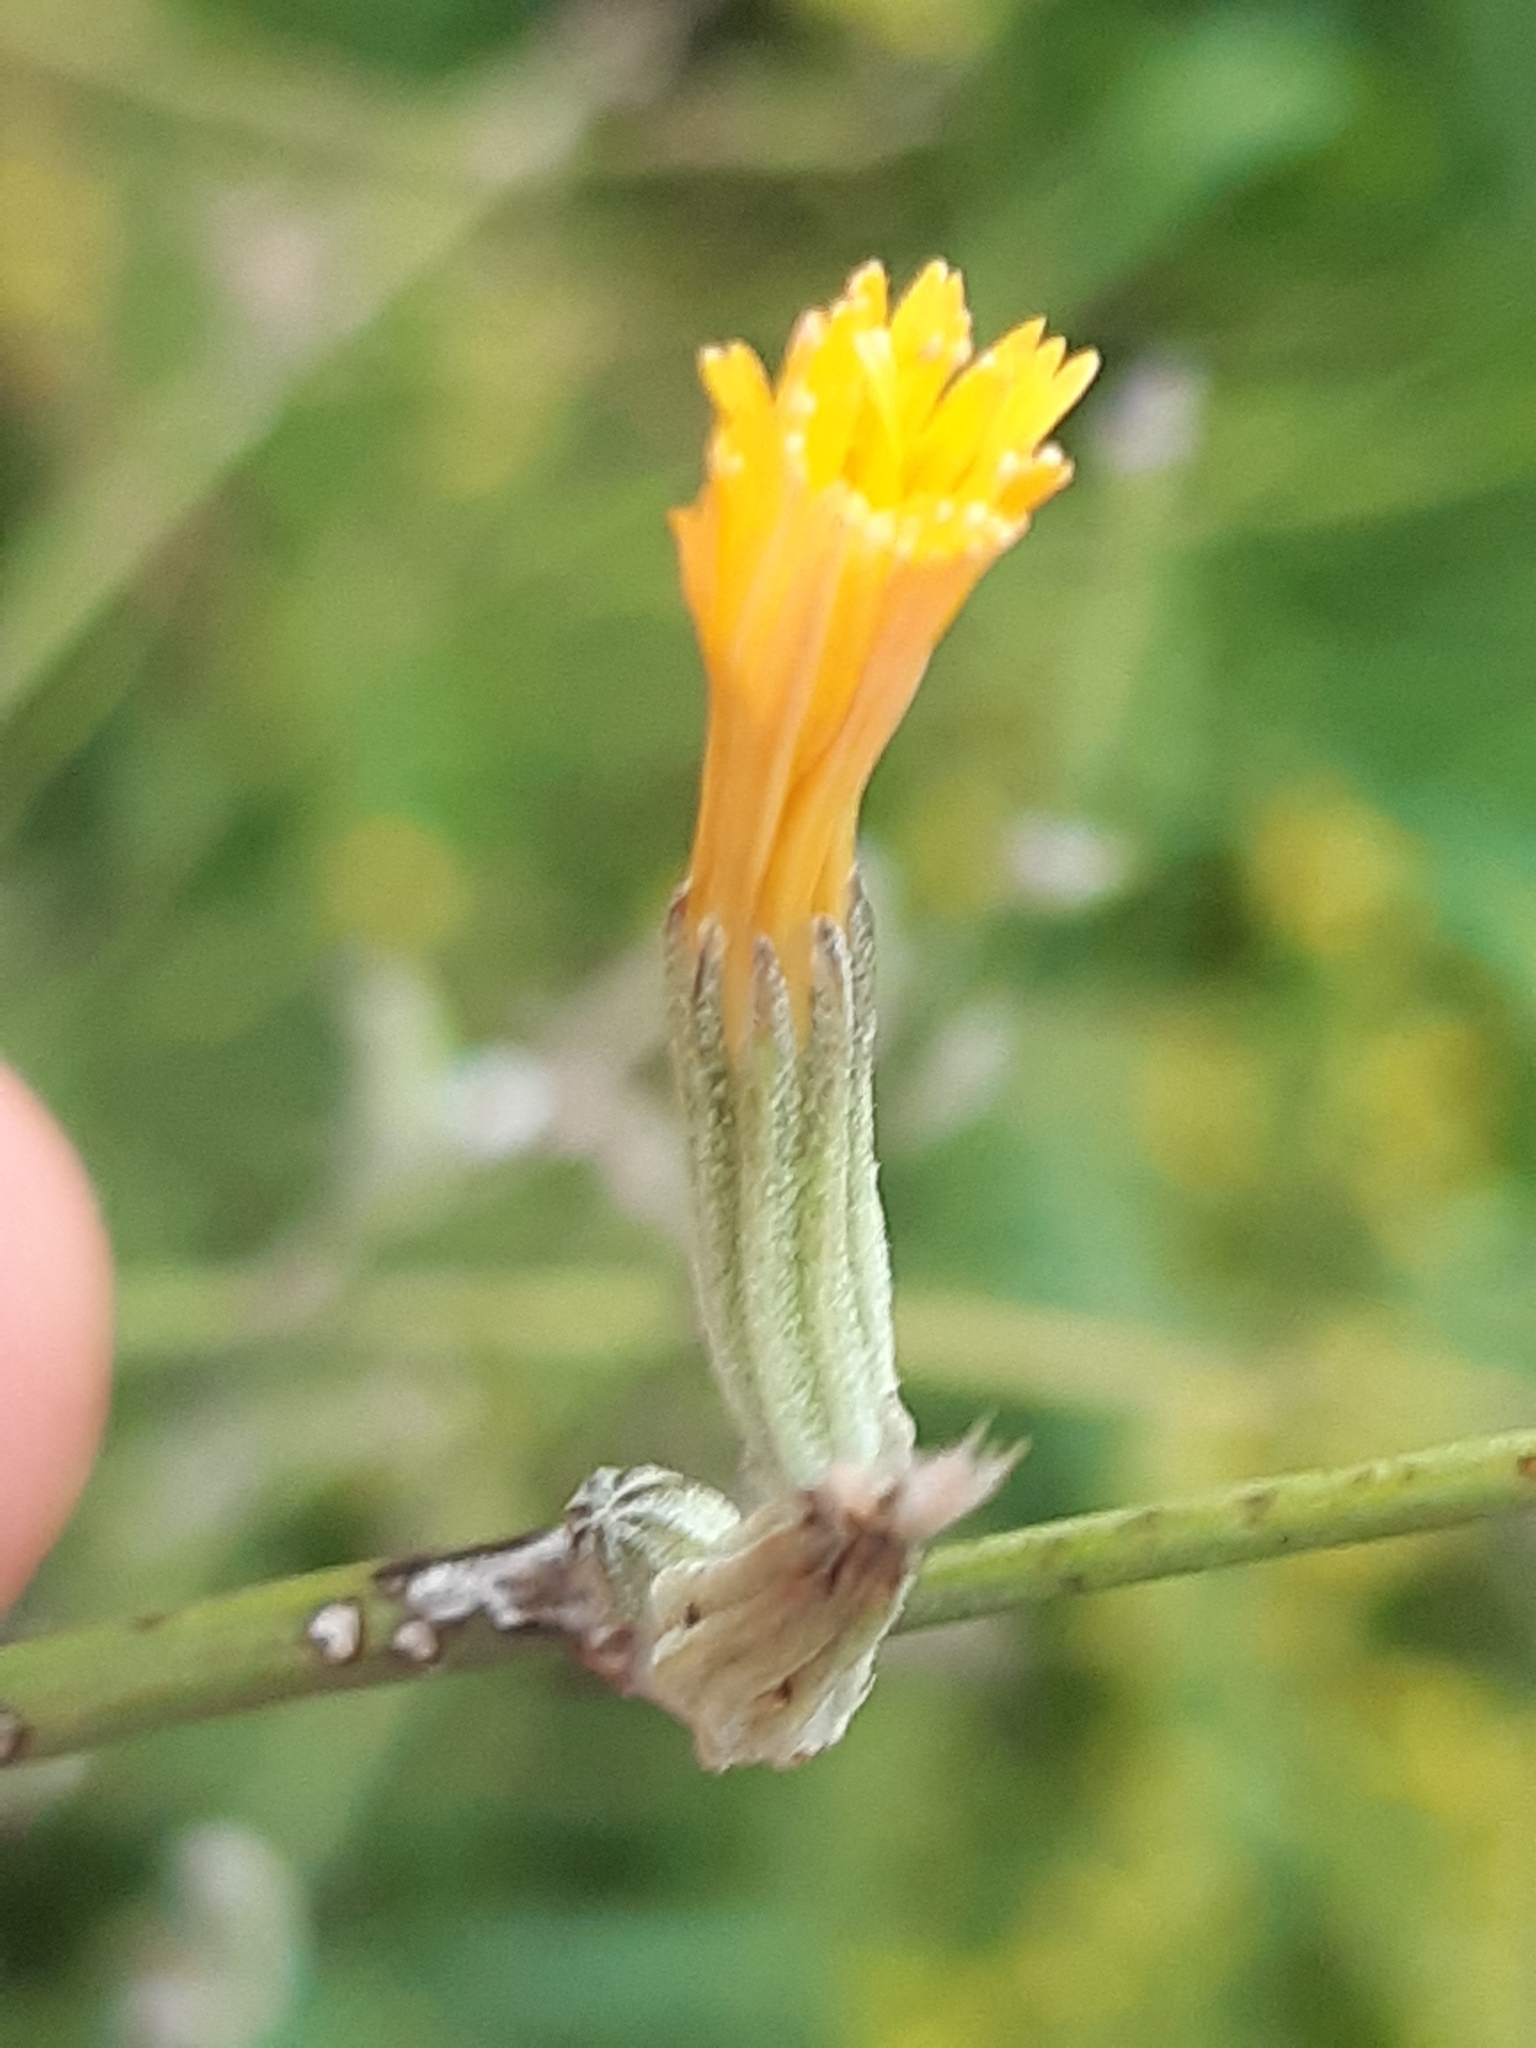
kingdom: Plantae
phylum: Tracheophyta
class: Magnoliopsida
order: Asterales
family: Asteraceae
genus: Chondrilla
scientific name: Chondrilla juncea
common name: Skeleton weed
